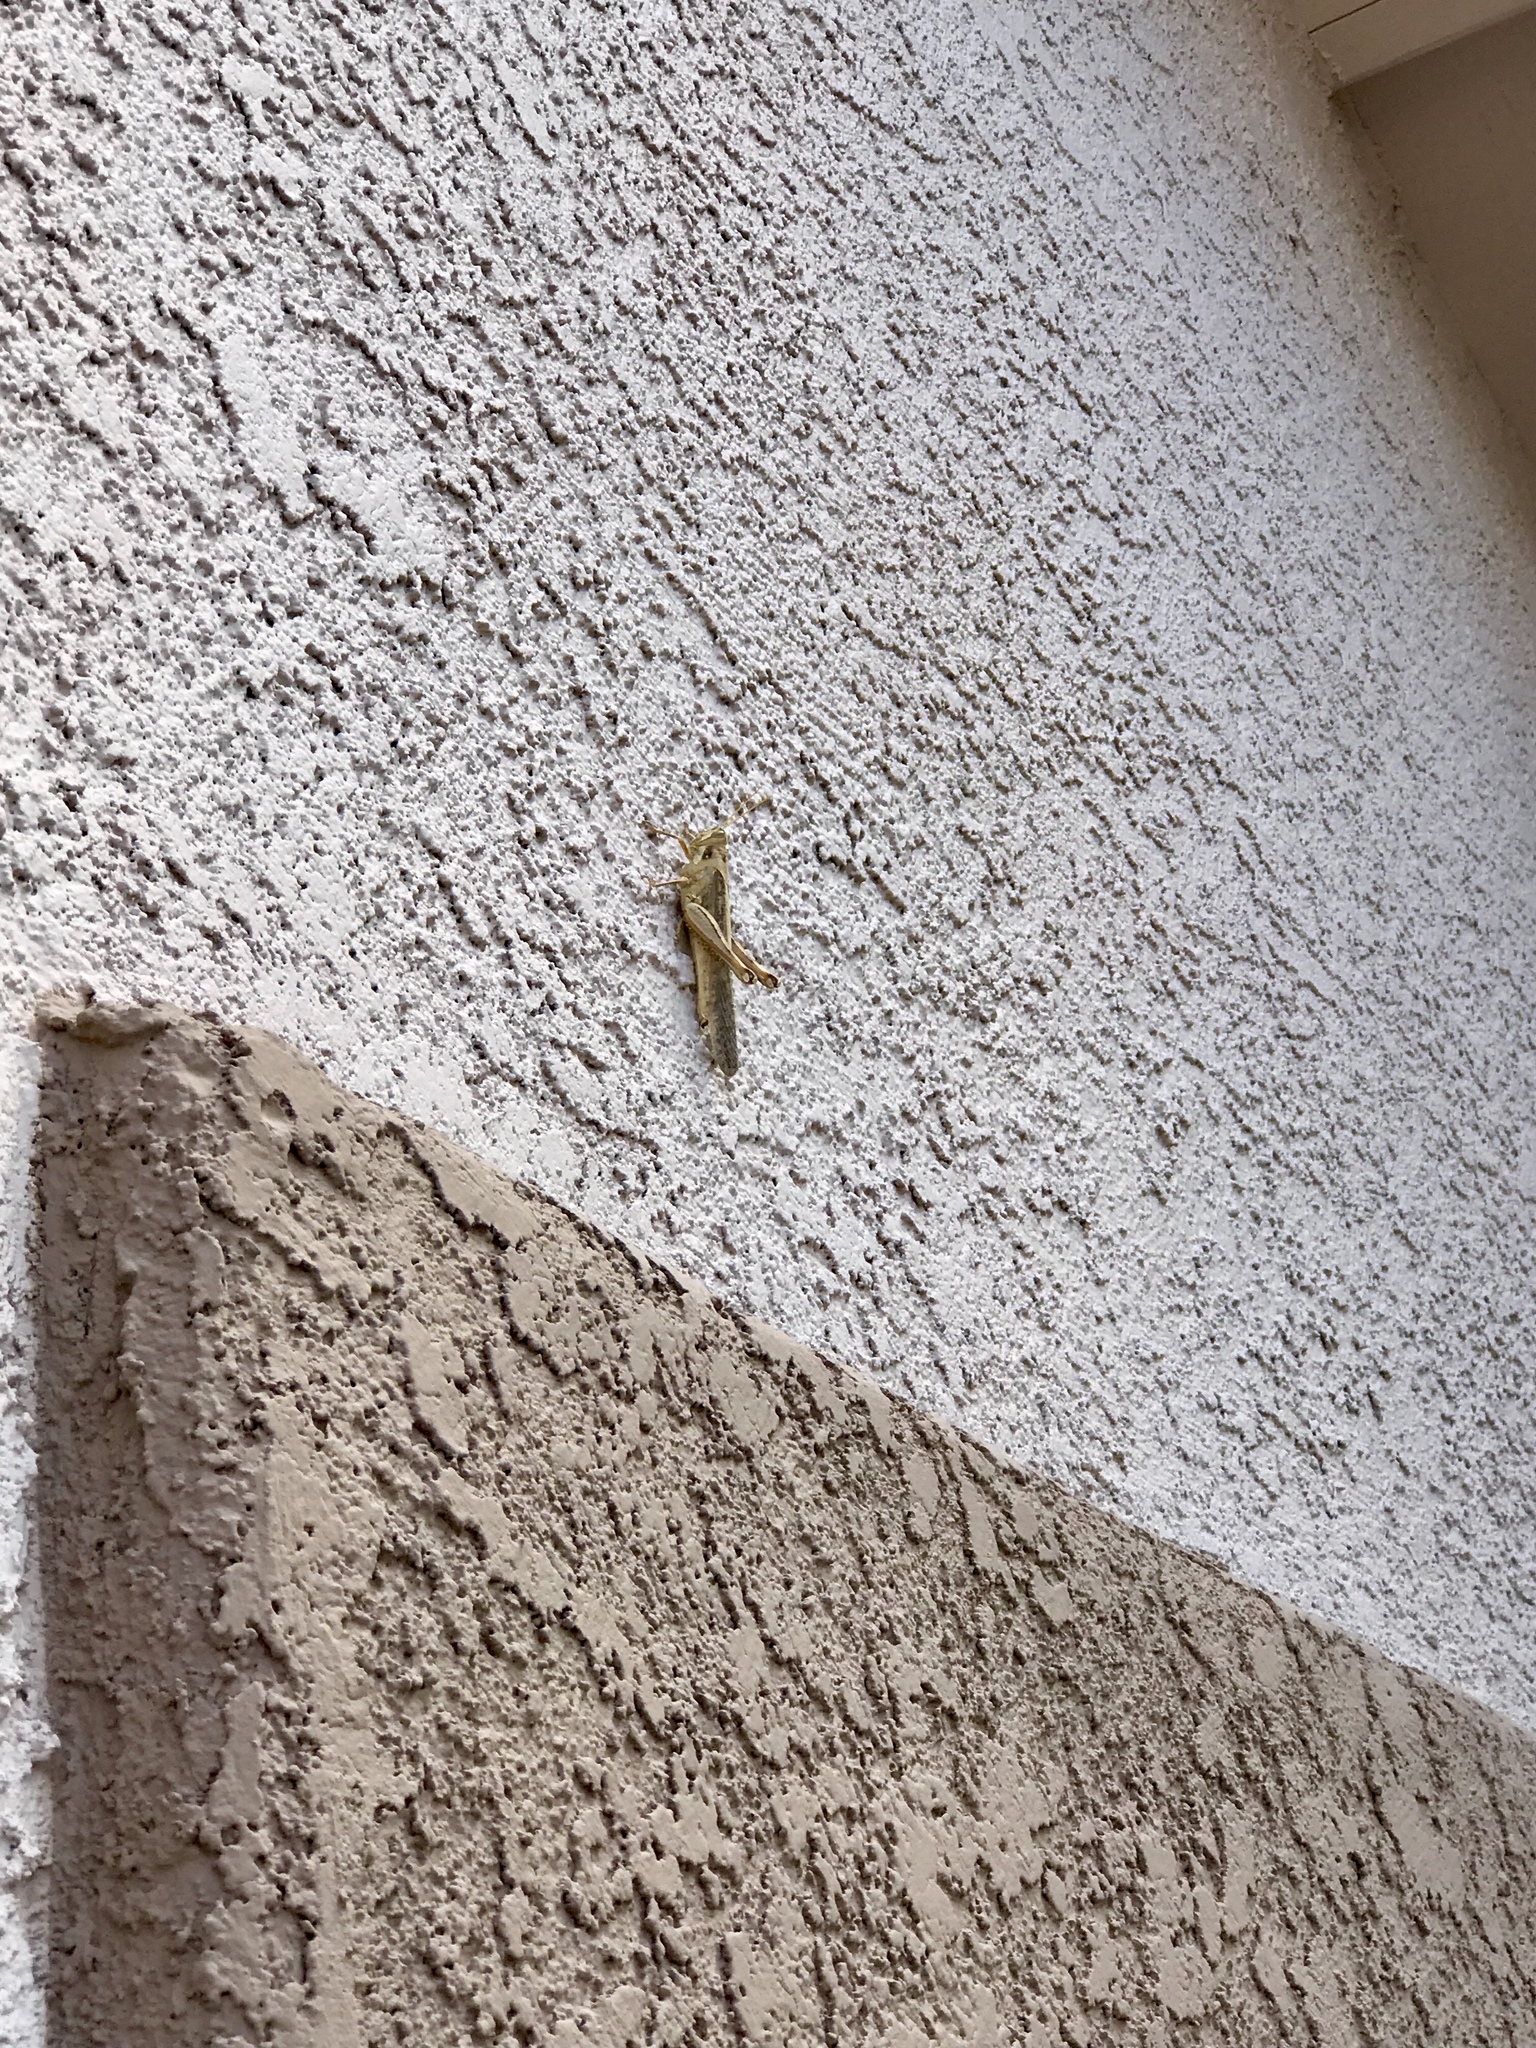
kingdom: Animalia
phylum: Arthropoda
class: Insecta
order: Orthoptera
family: Acrididae
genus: Schistocerca
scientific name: Schistocerca nitens
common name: Vagrant grasshopper
